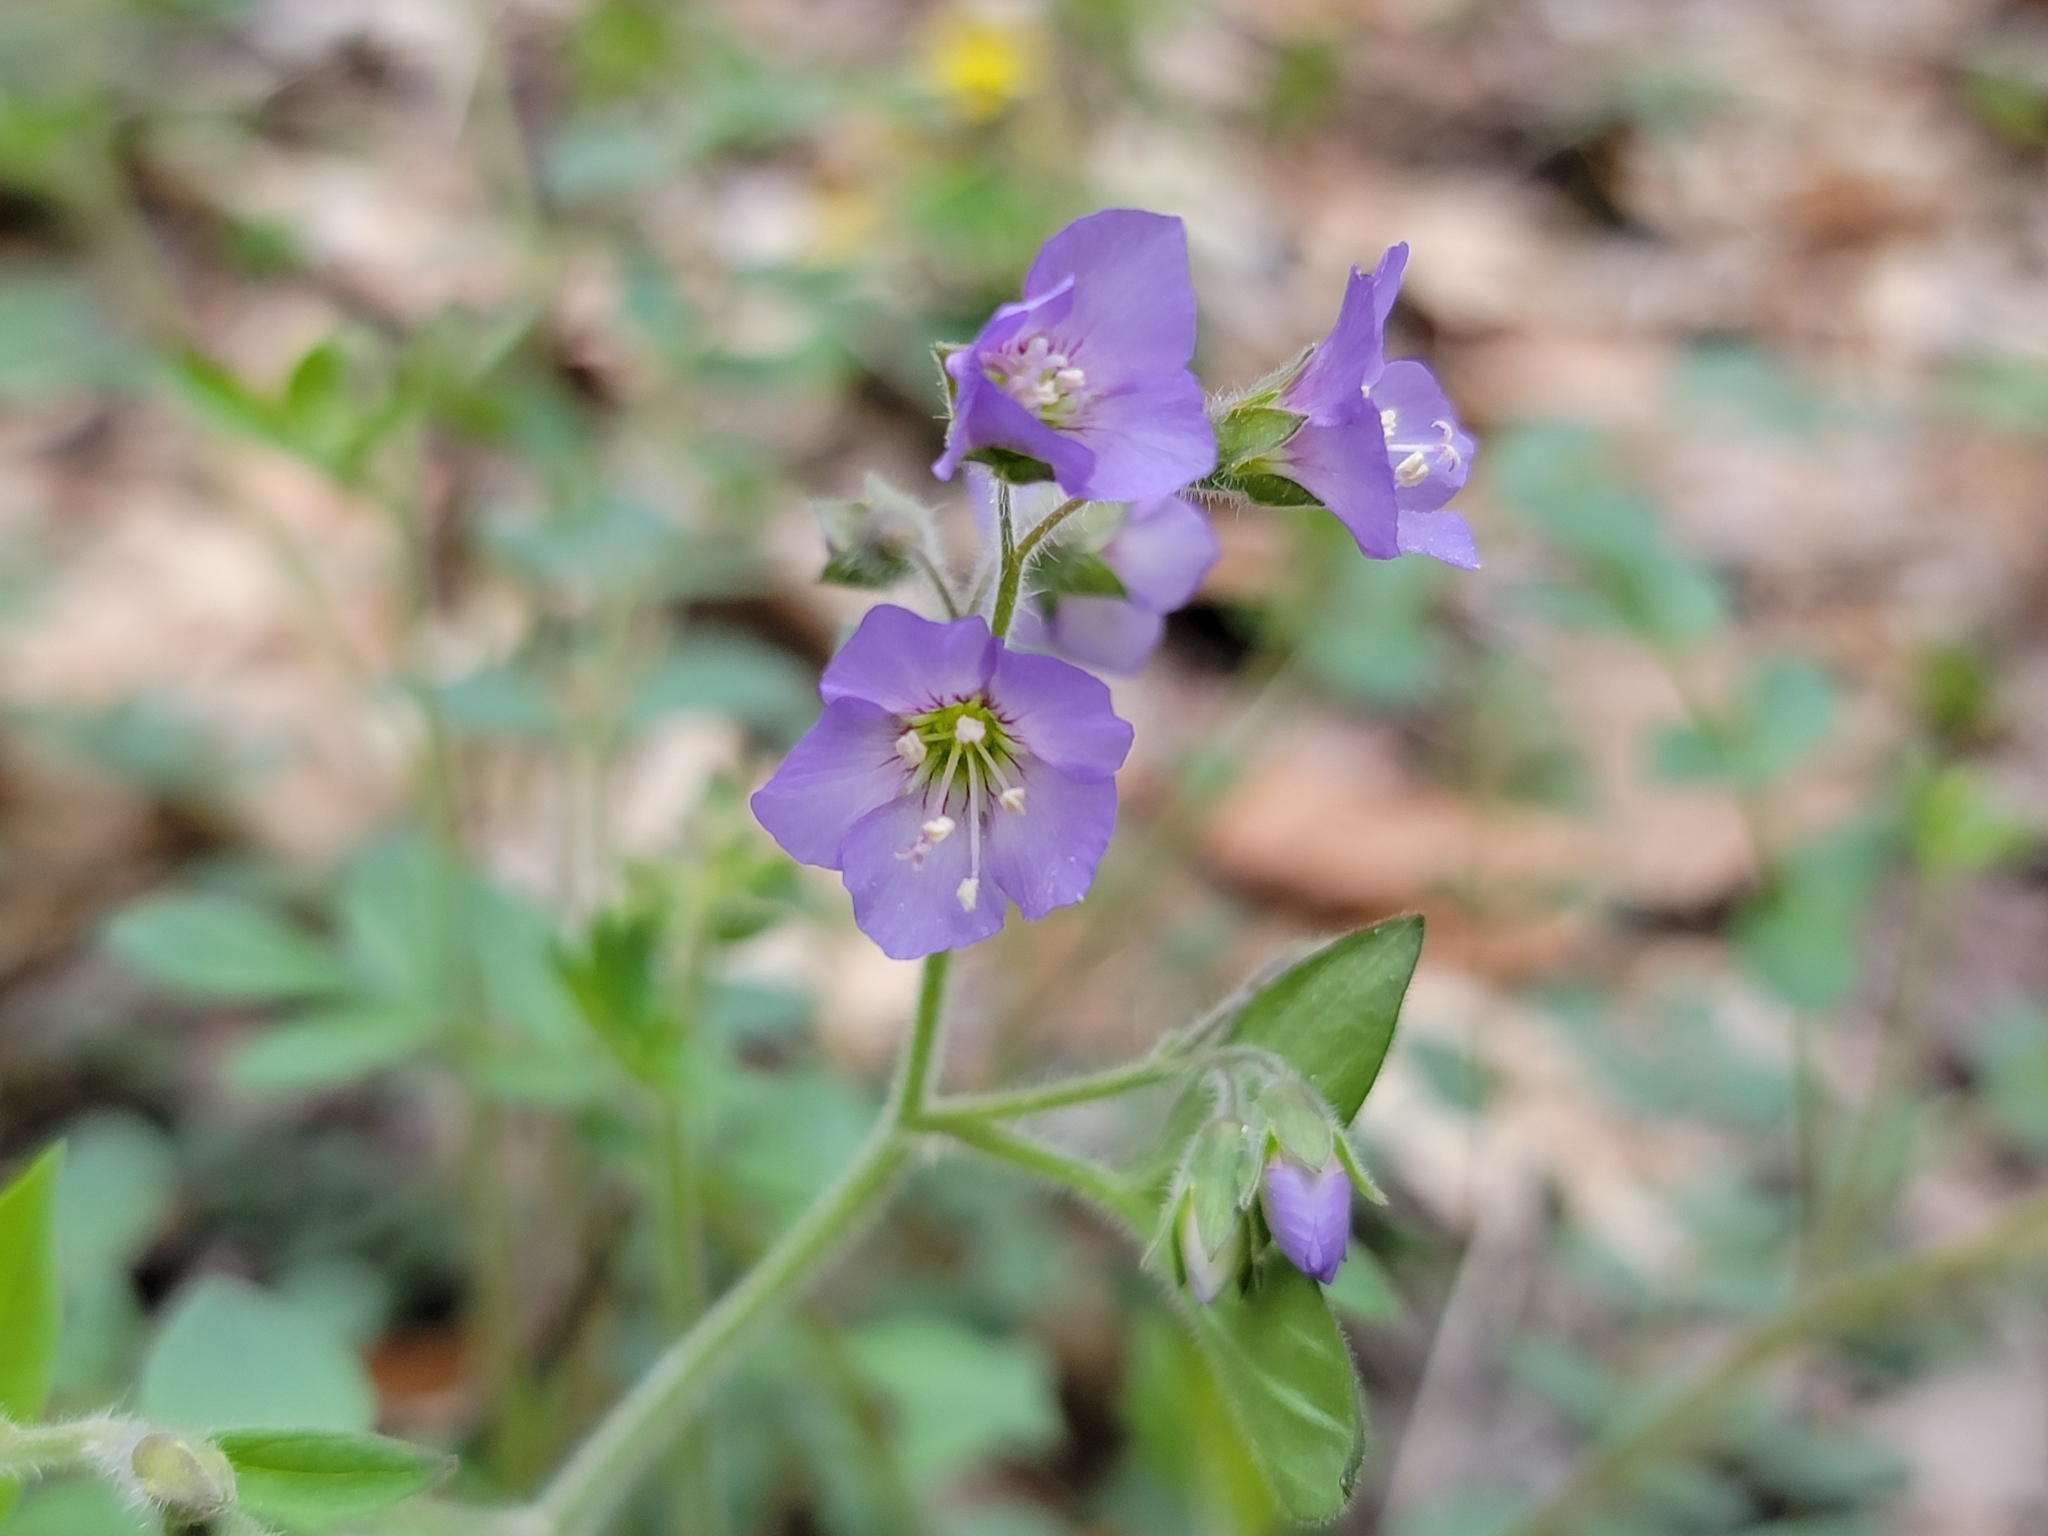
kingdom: Plantae
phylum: Tracheophyta
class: Magnoliopsida
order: Ericales
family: Polemoniaceae
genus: Polemonium
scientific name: Polemonium reptans
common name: Creeping jacob's-ladder
